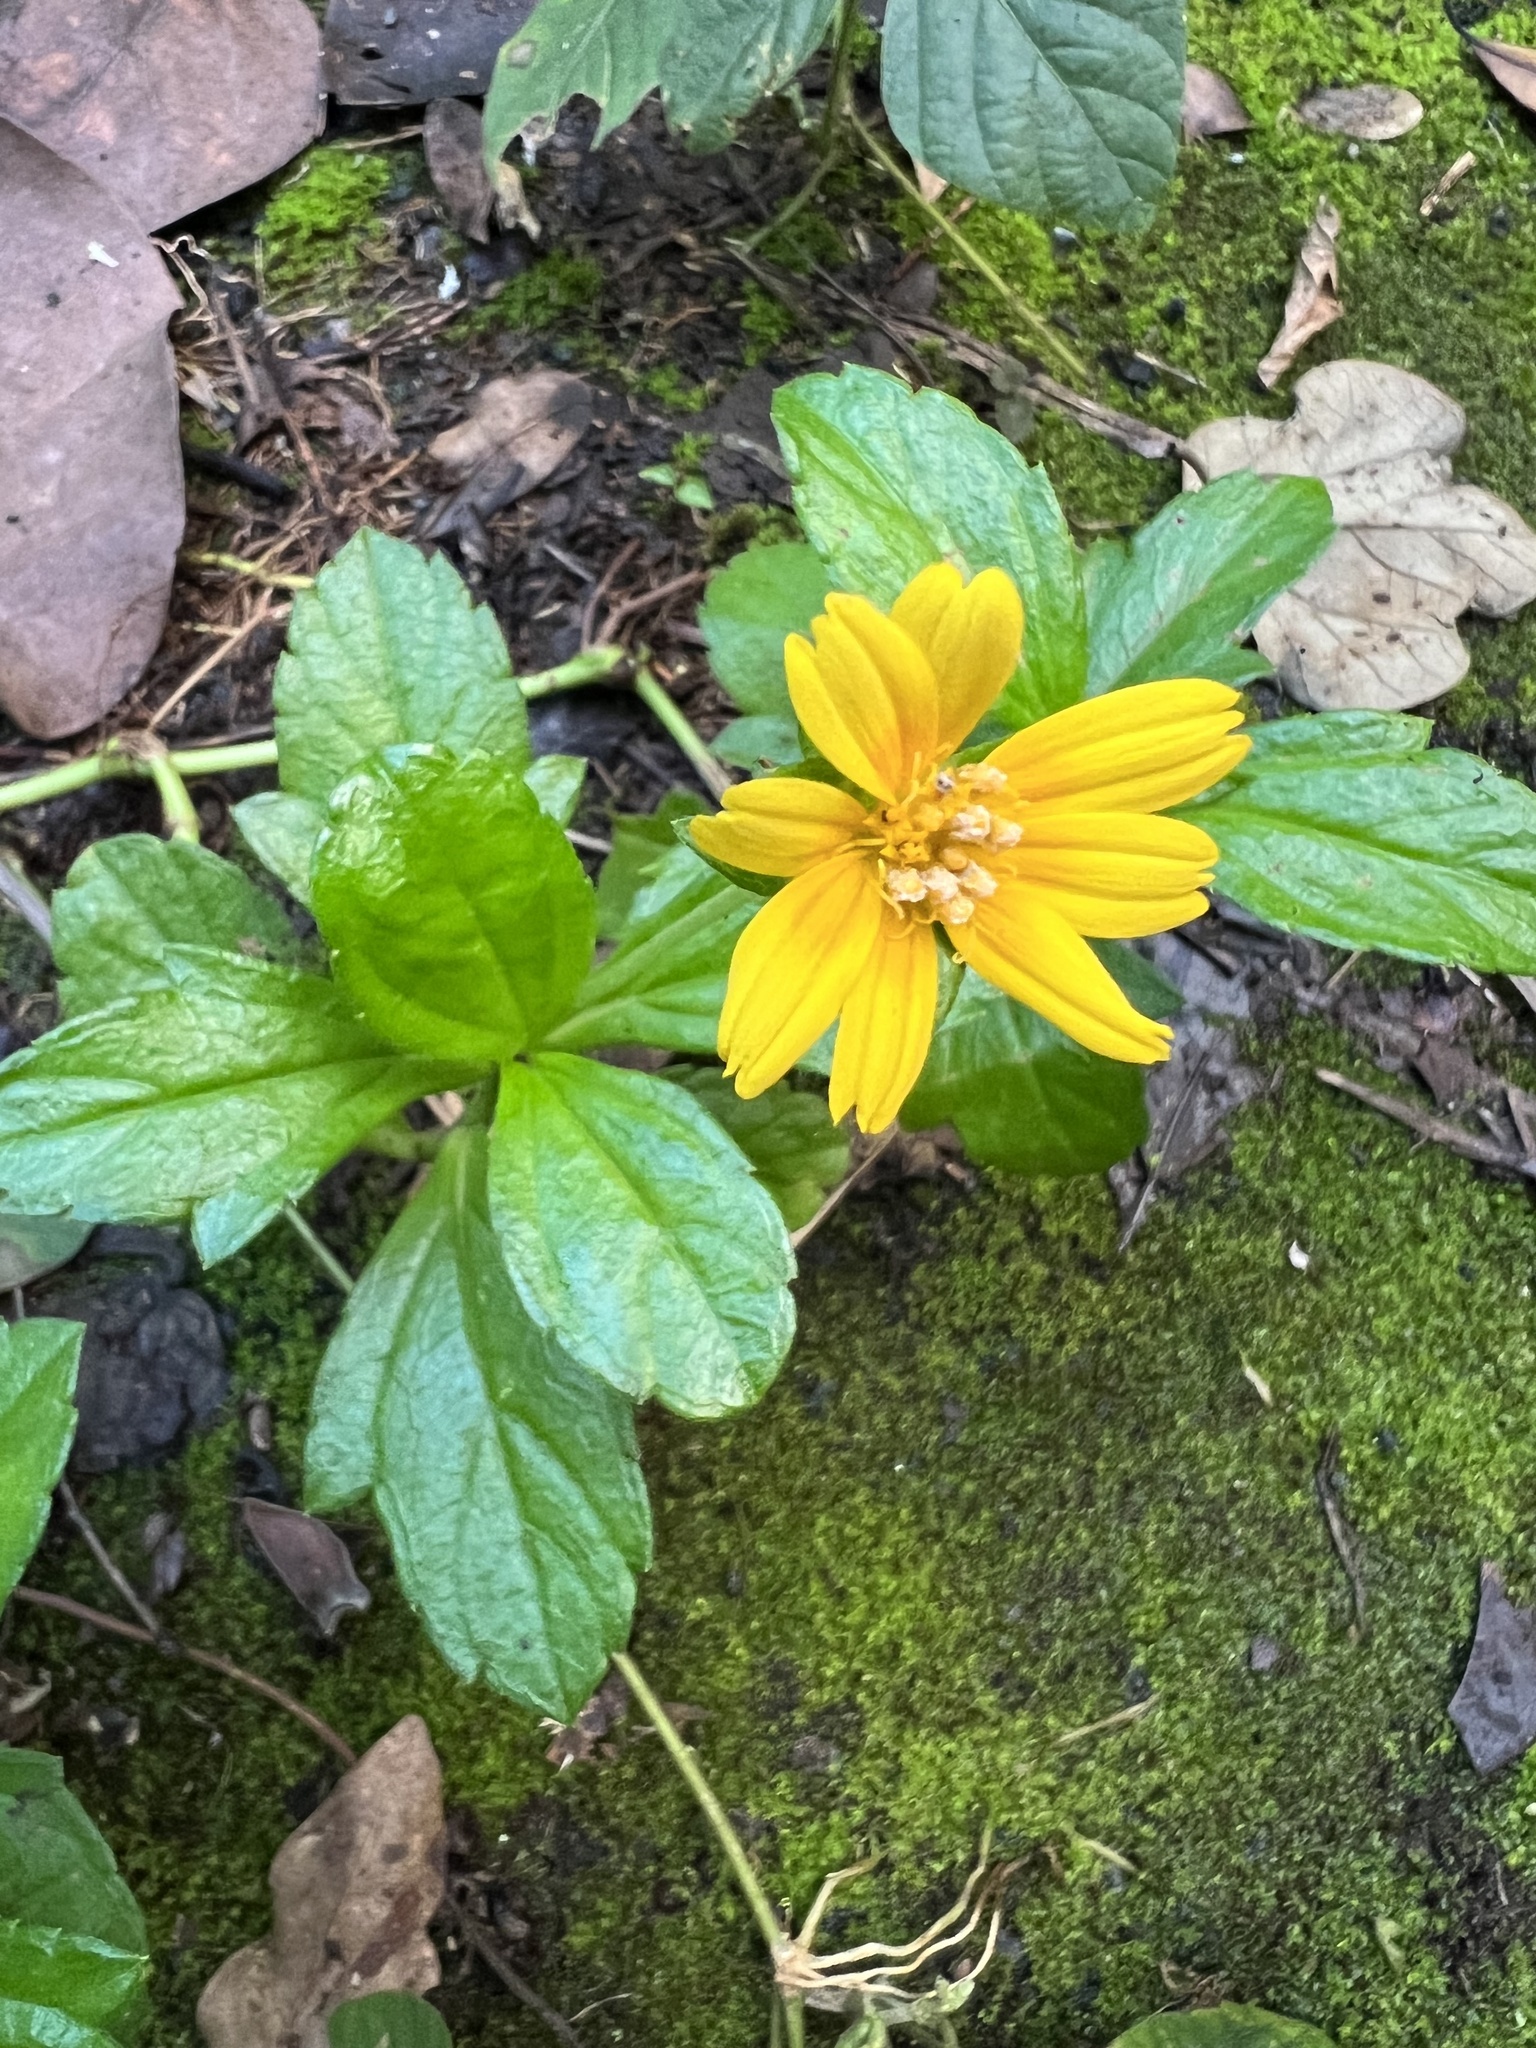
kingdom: Plantae
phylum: Tracheophyta
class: Magnoliopsida
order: Asterales
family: Asteraceae
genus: Sphagneticola
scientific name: Sphagneticola trilobata
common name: Bay biscayne creeping-oxeye
